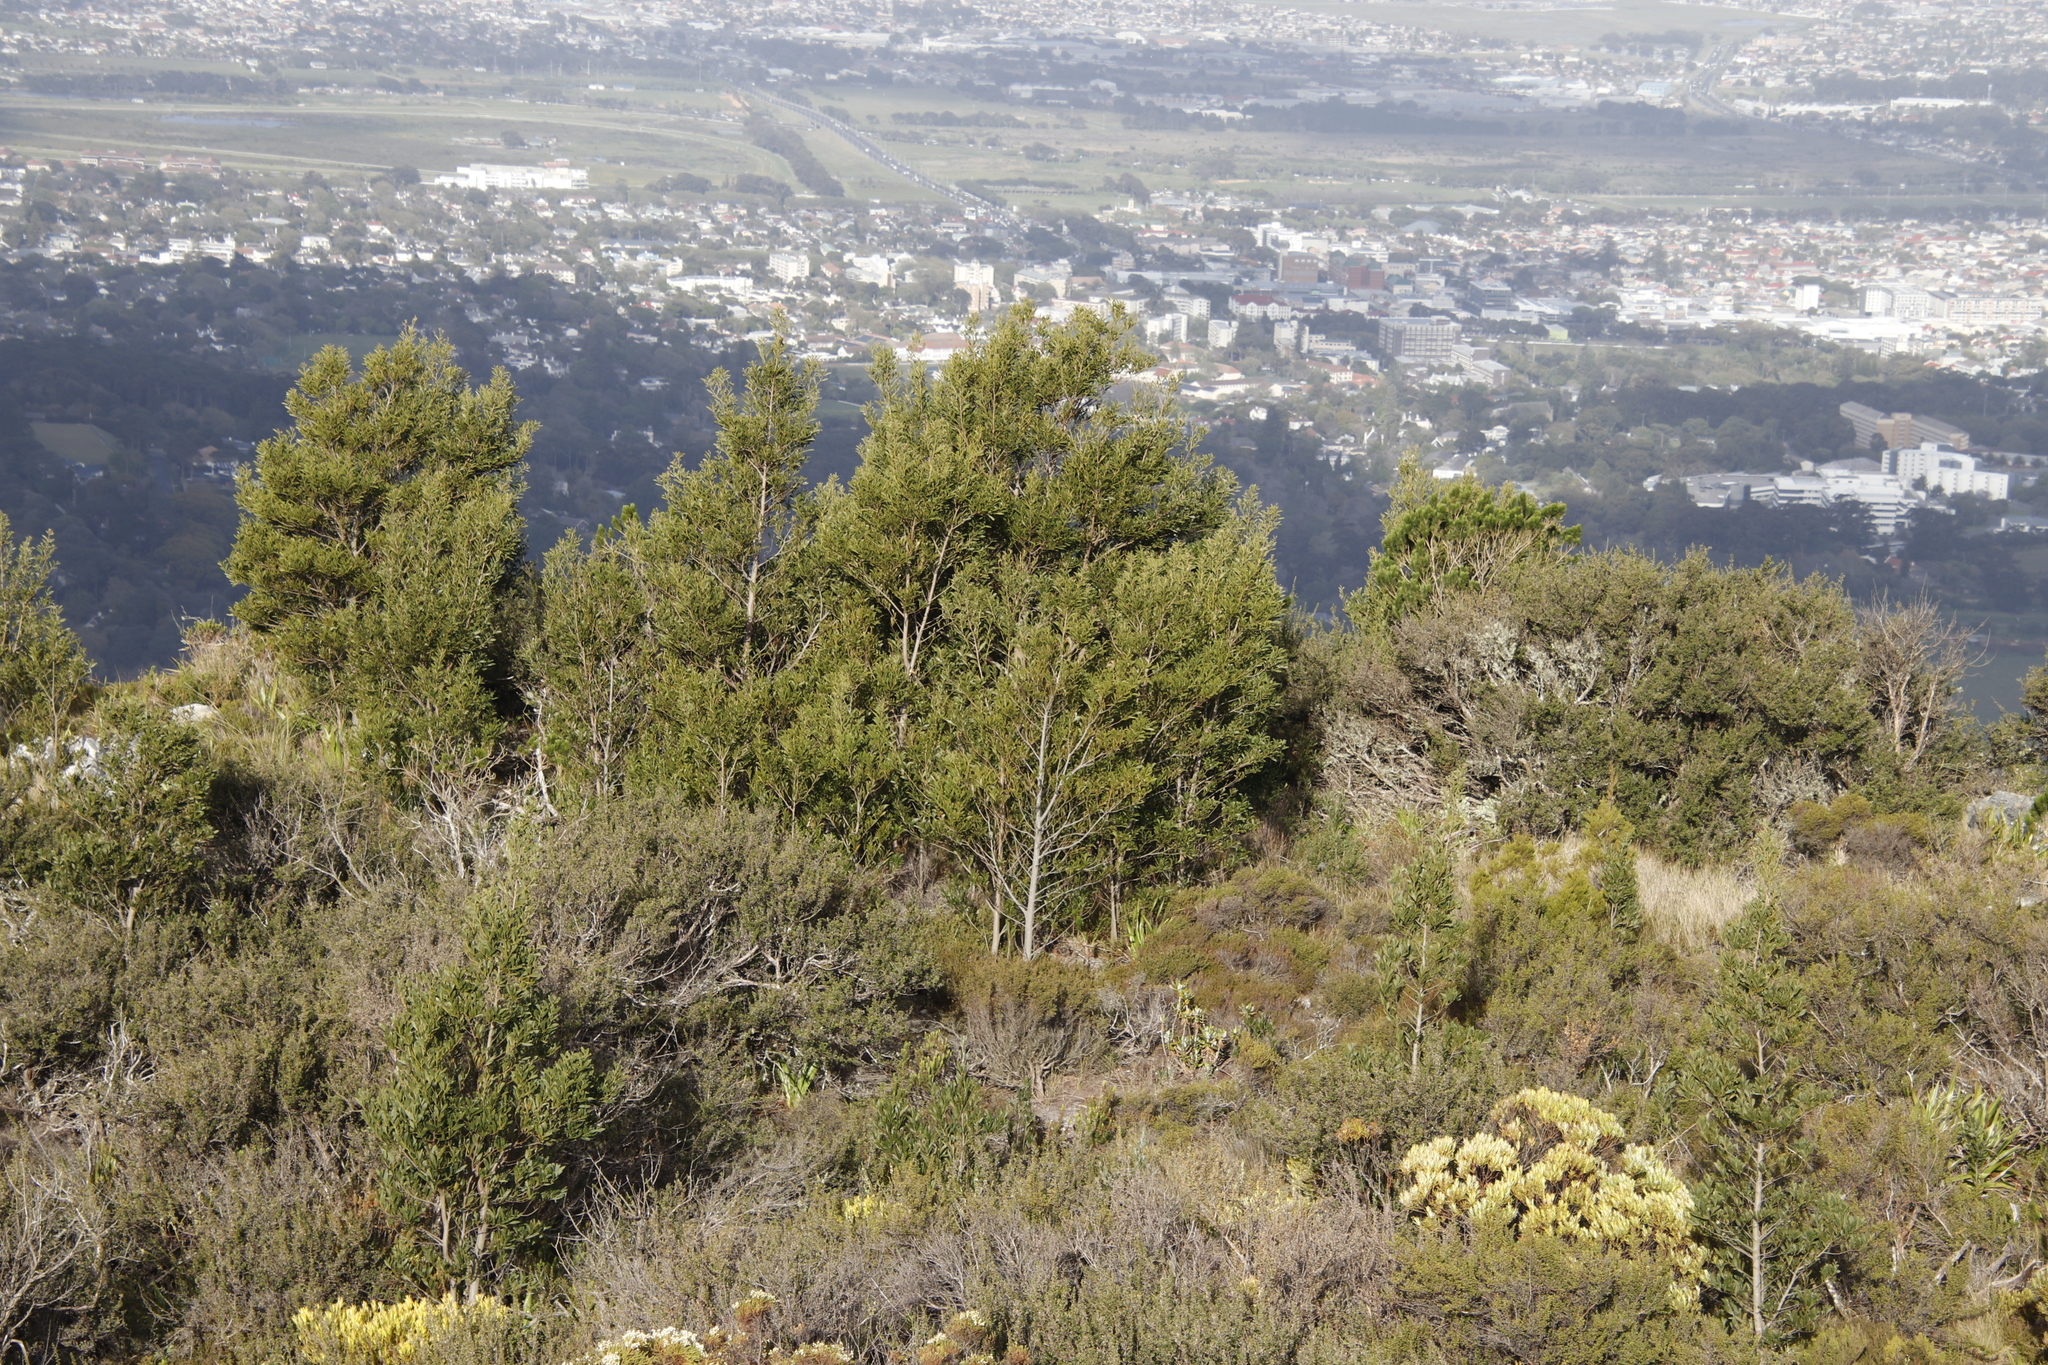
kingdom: Plantae
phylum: Tracheophyta
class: Magnoliopsida
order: Fabales
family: Fabaceae
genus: Acacia
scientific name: Acacia melanoxylon
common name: Blackwood
